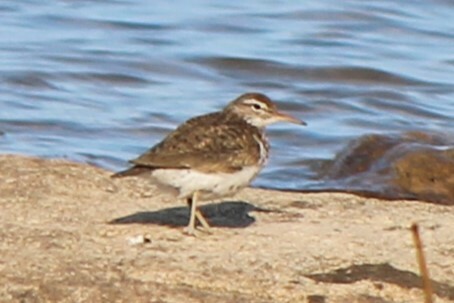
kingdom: Animalia
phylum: Chordata
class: Aves
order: Charadriiformes
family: Scolopacidae
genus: Actitis
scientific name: Actitis macularius
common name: Spotted sandpiper
